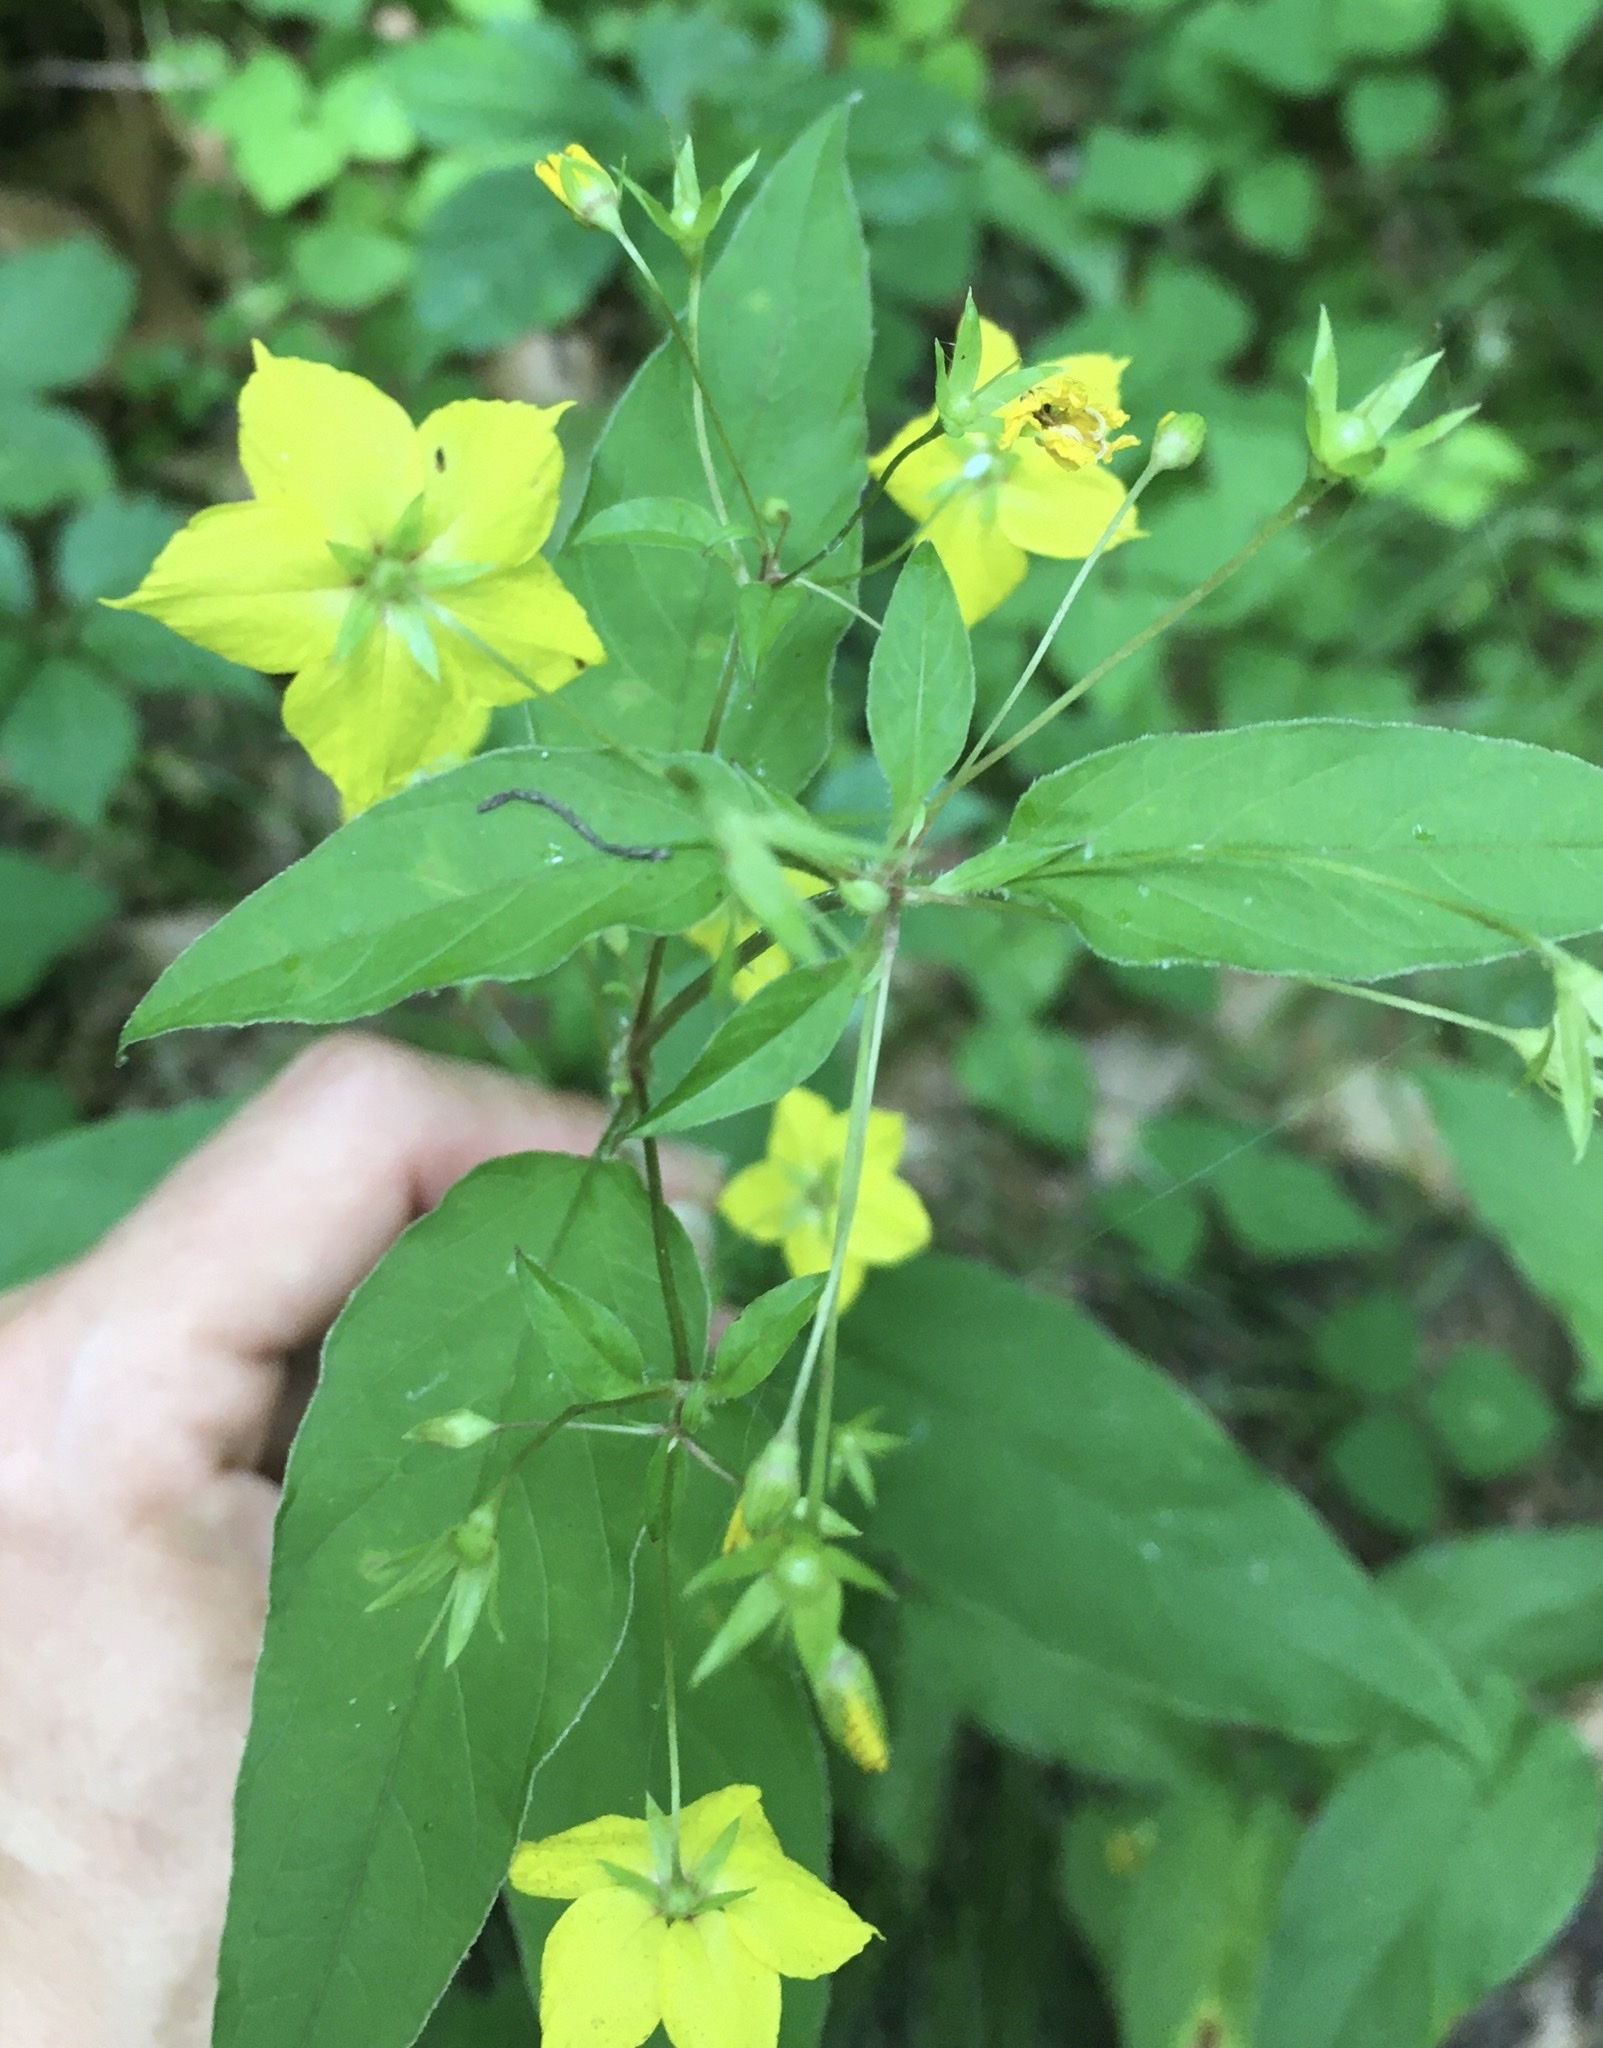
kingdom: Plantae
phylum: Tracheophyta
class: Magnoliopsida
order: Ericales
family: Primulaceae
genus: Lysimachia
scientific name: Lysimachia ciliata
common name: Fringed loosestrife
